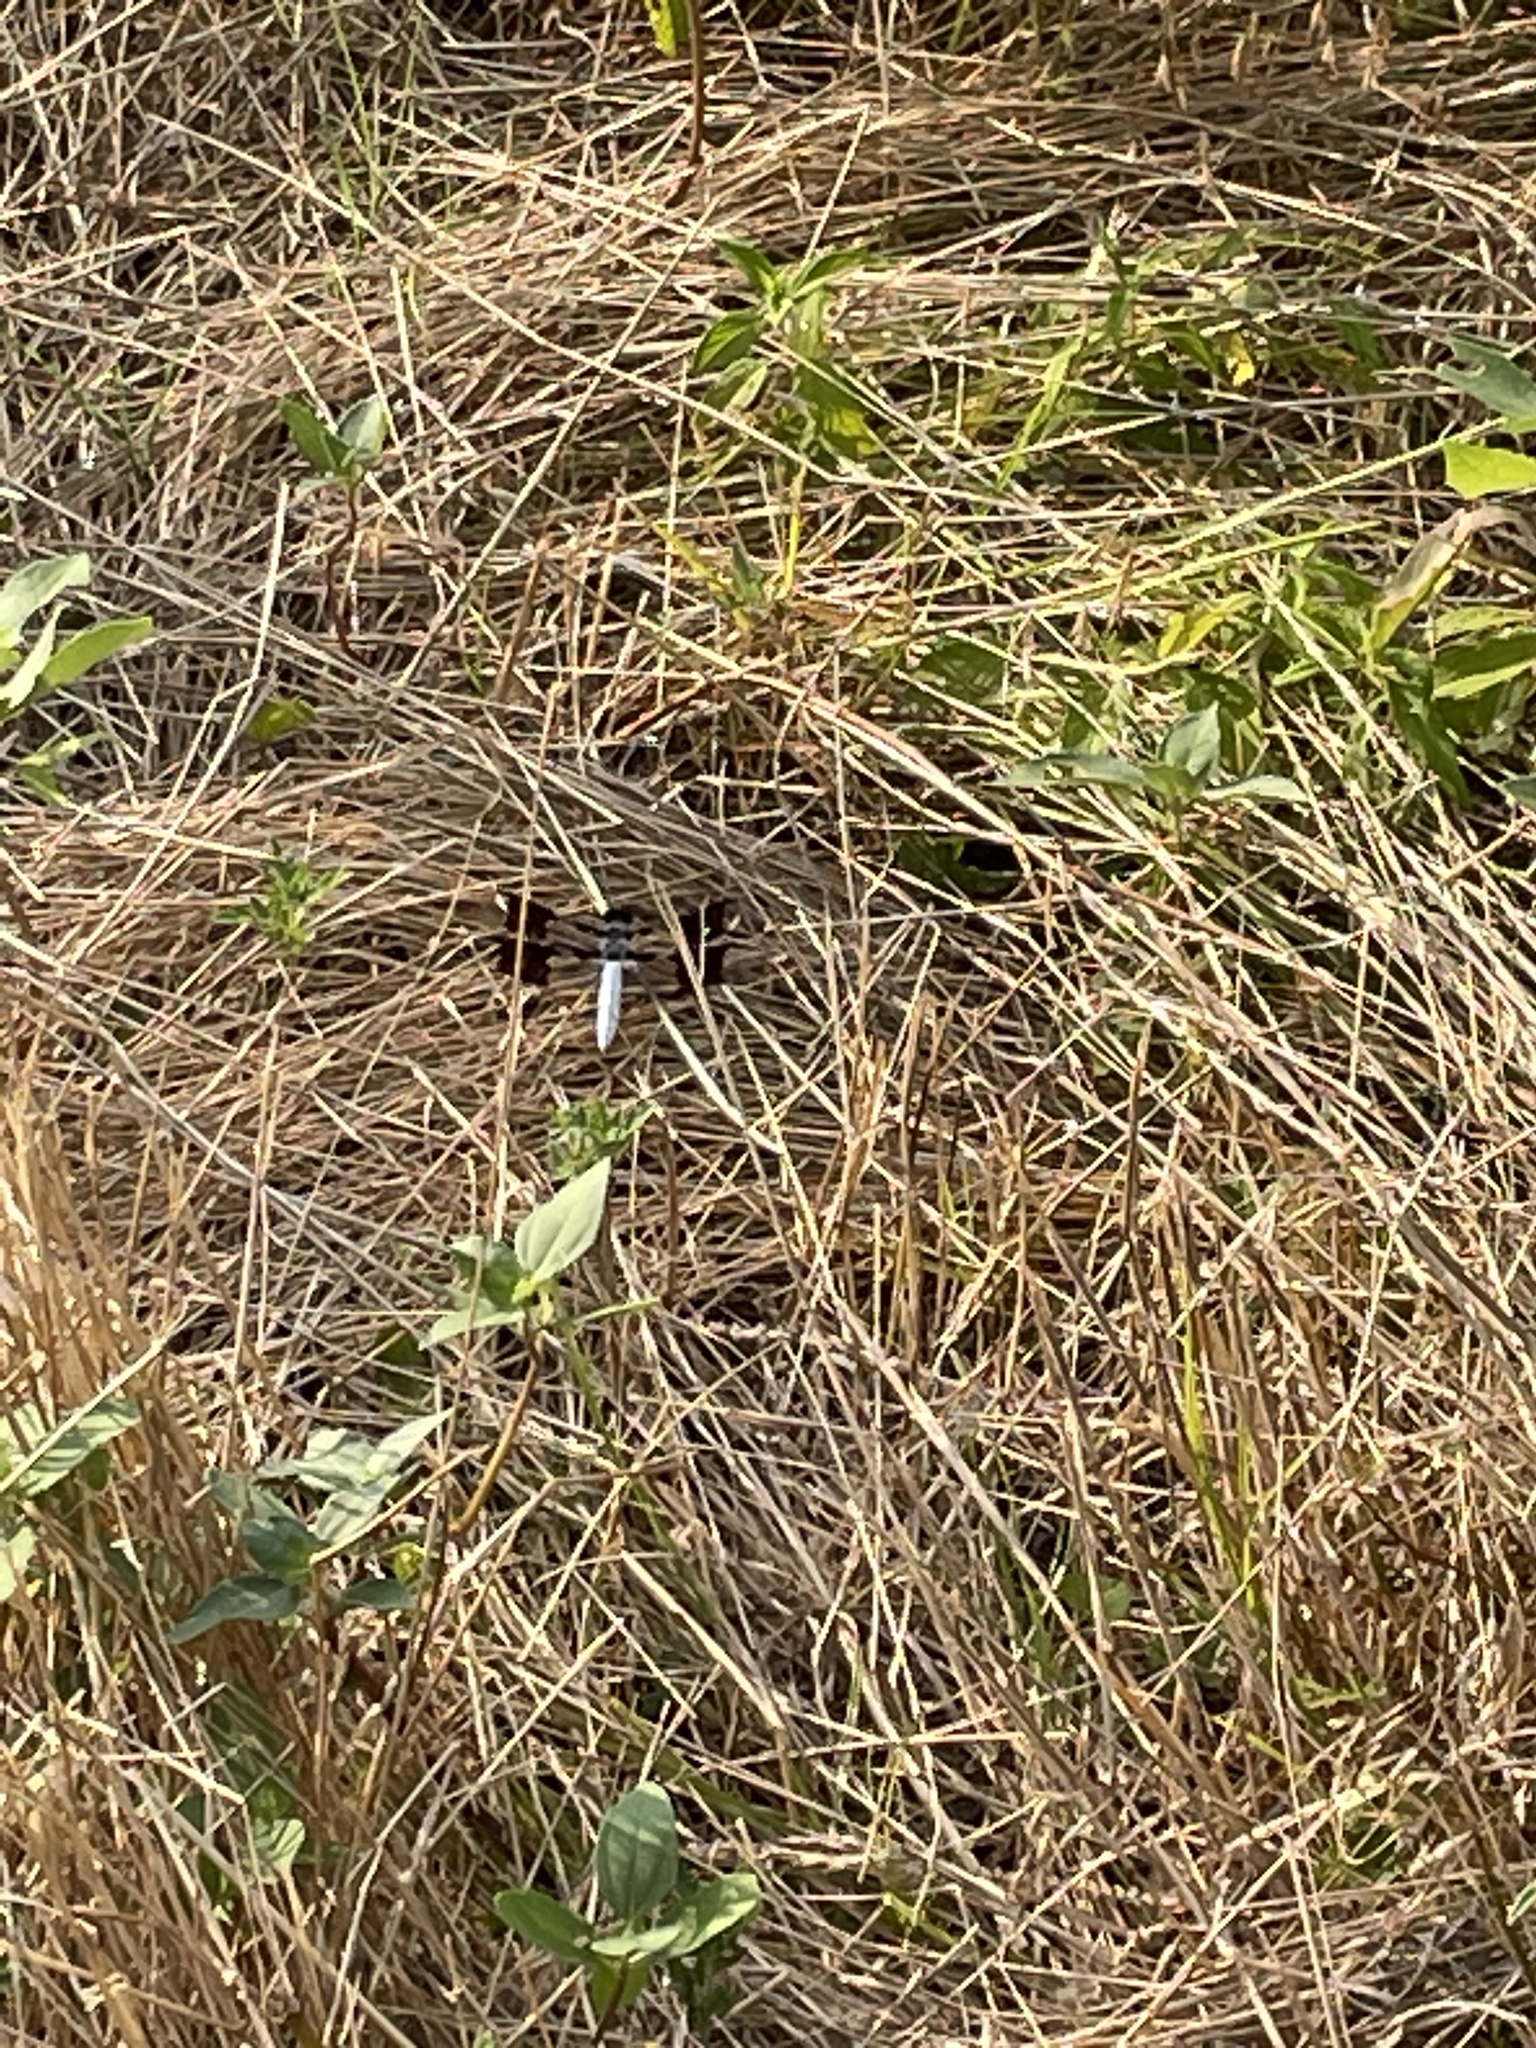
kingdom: Animalia
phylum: Arthropoda
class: Insecta
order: Odonata
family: Libellulidae
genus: Plathemis
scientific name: Plathemis lydia
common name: Common whitetail
